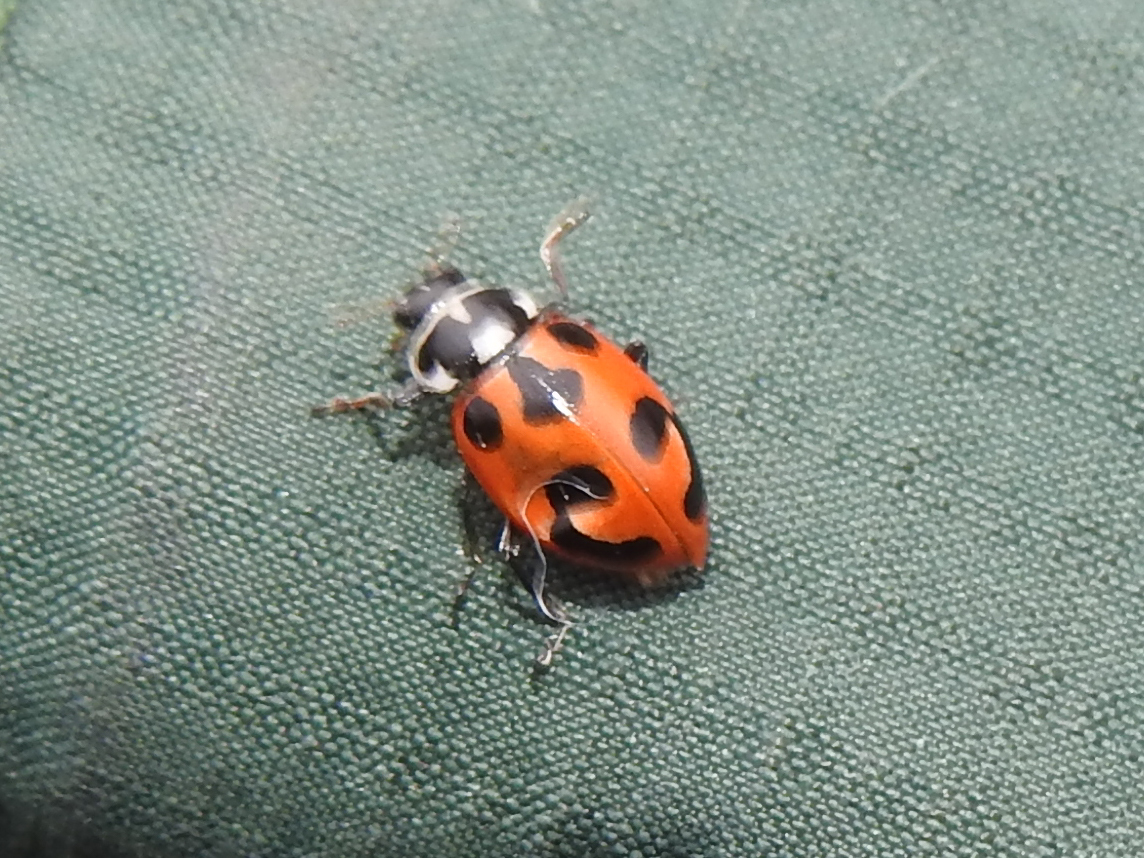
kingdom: Animalia
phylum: Arthropoda
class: Insecta
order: Coleoptera
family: Coccinellidae
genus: Hippodamia
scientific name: Hippodamia parenthesis
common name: Parenthesis lady beetle
